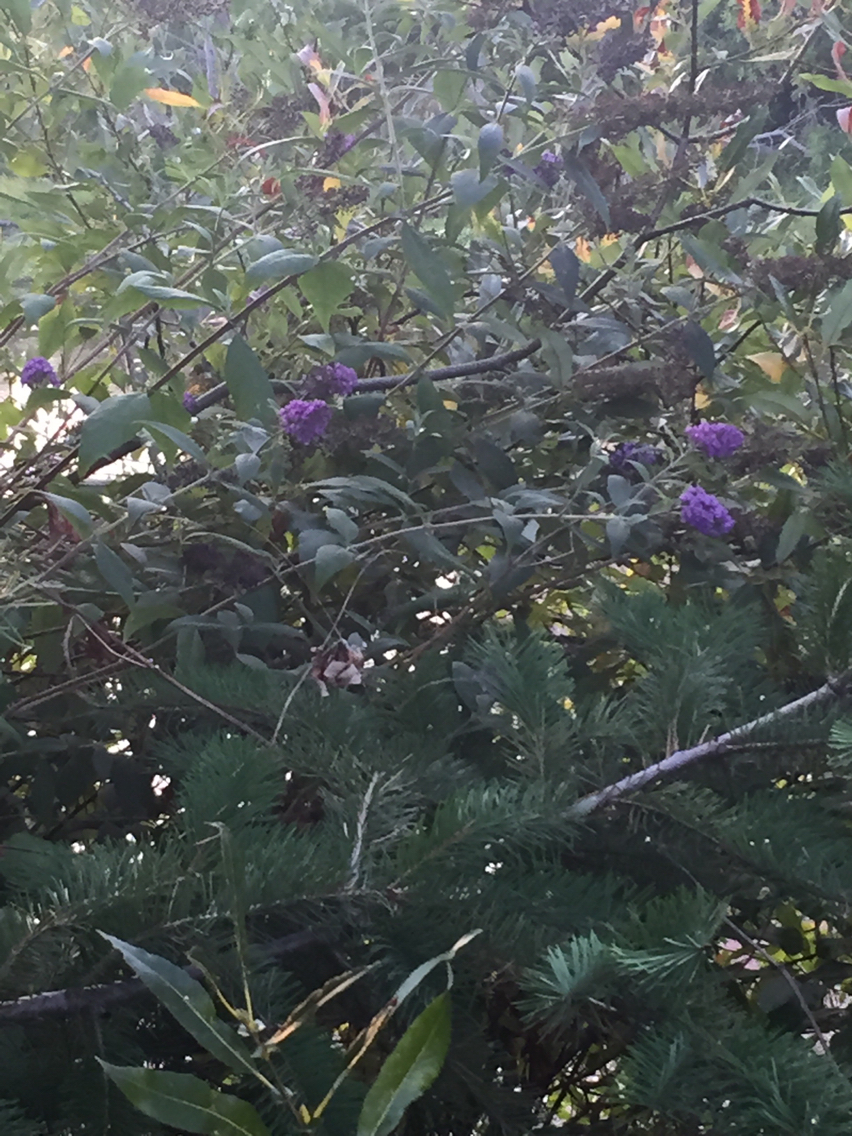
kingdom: Plantae
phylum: Tracheophyta
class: Magnoliopsida
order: Lamiales
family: Scrophulariaceae
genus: Buddleja
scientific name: Buddleja davidii
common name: Butterfly-bush
